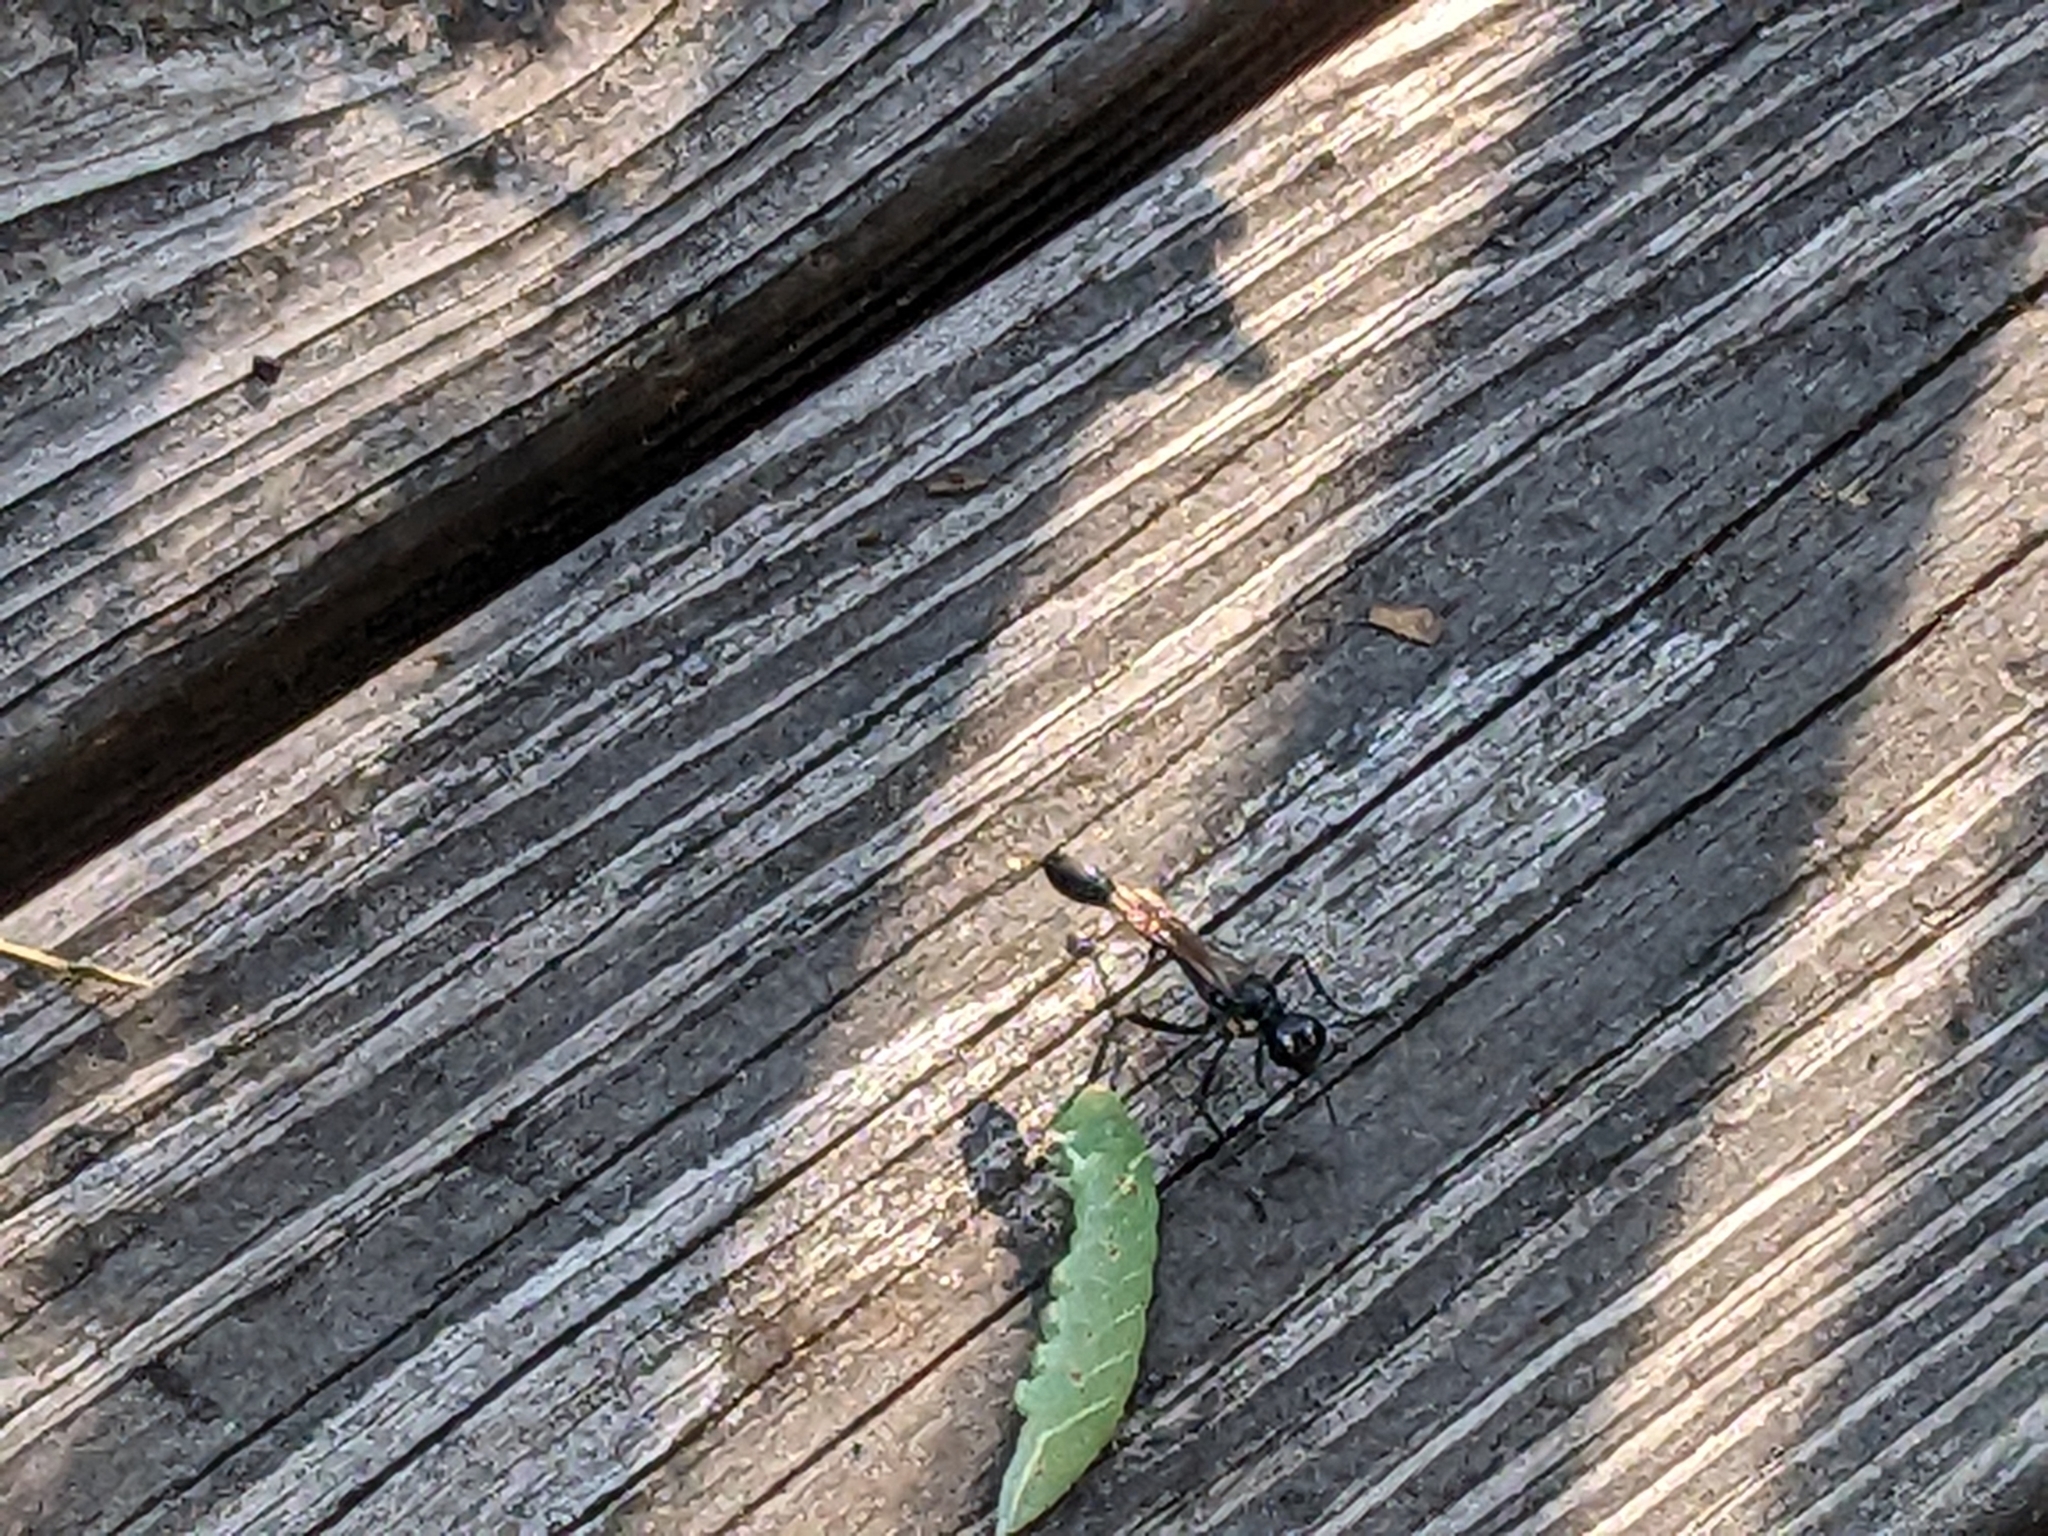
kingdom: Animalia
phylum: Arthropoda
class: Insecta
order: Hymenoptera
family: Sphecidae
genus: Eremnophila
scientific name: Eremnophila aureonotata
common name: Gold-marked thread-waisted wasp
